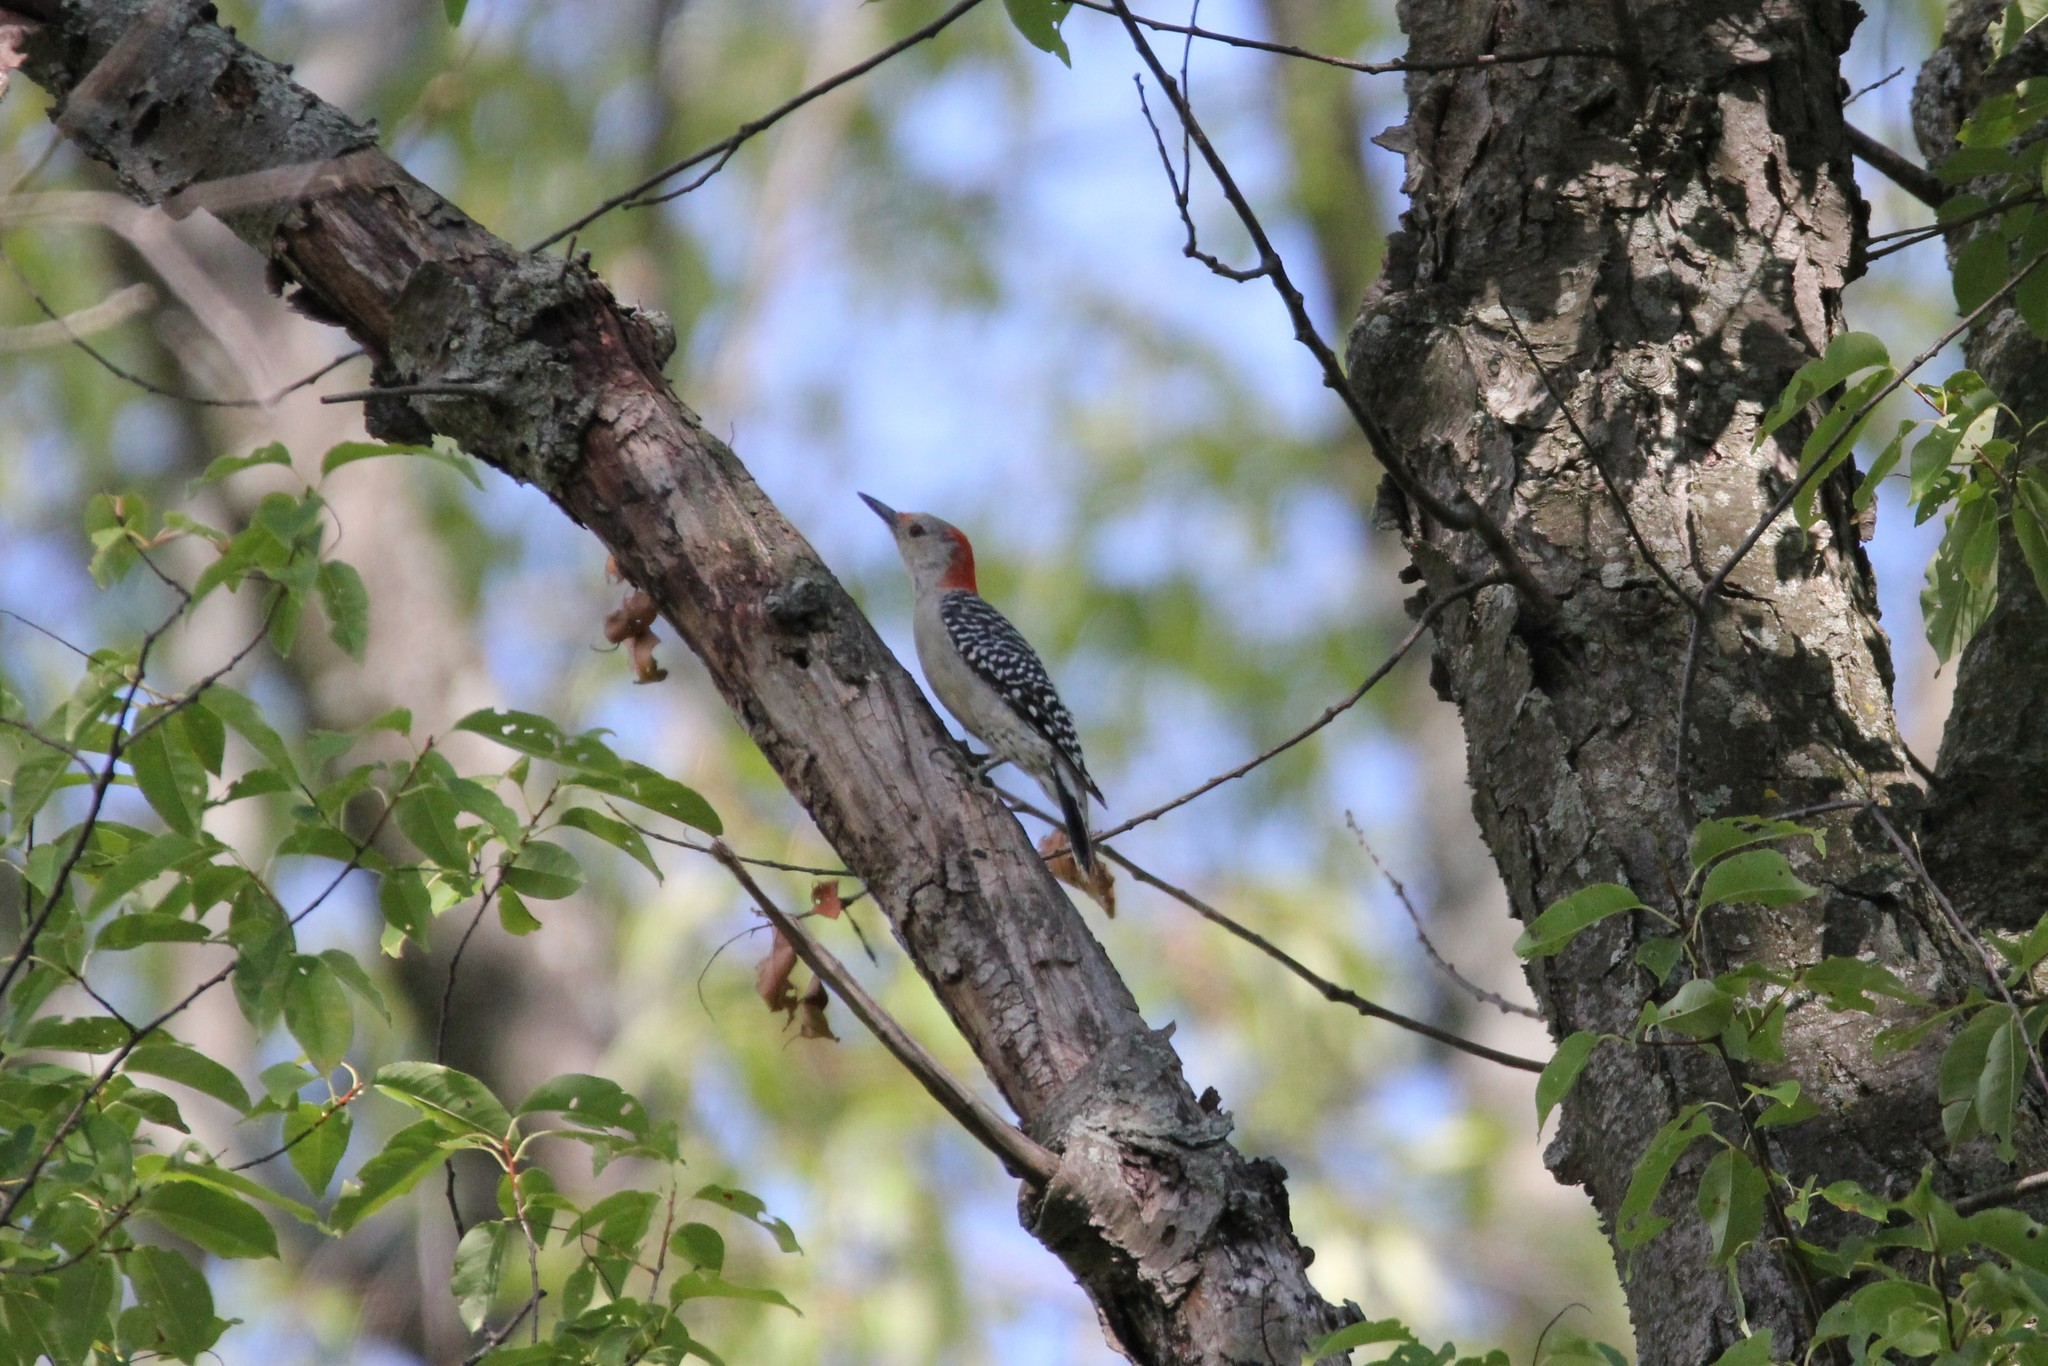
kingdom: Animalia
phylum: Chordata
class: Aves
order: Piciformes
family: Picidae
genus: Melanerpes
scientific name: Melanerpes carolinus
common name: Red-bellied woodpecker
